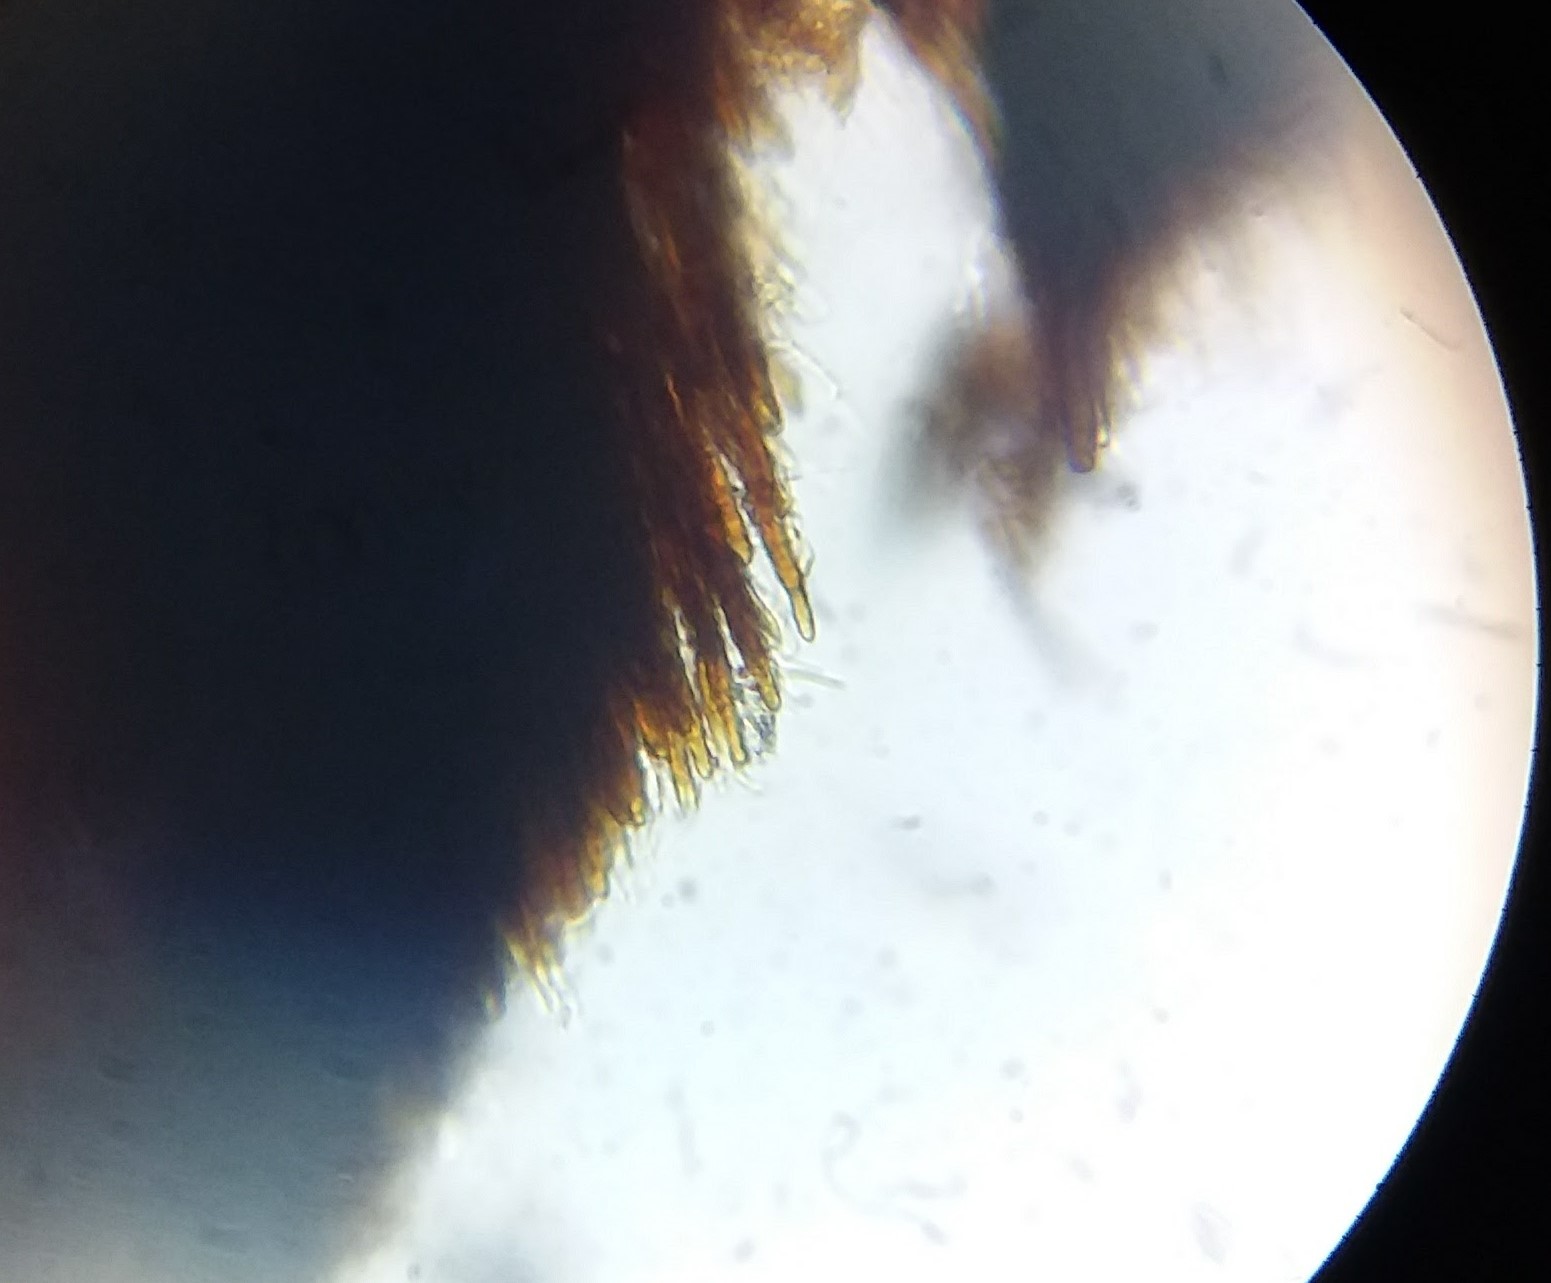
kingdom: Fungi
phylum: Basidiomycota
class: Agaricomycetes
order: Polyporales
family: Phanerochaetaceae
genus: Bjerkandera
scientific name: Bjerkandera adusta
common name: Smoky bracket
